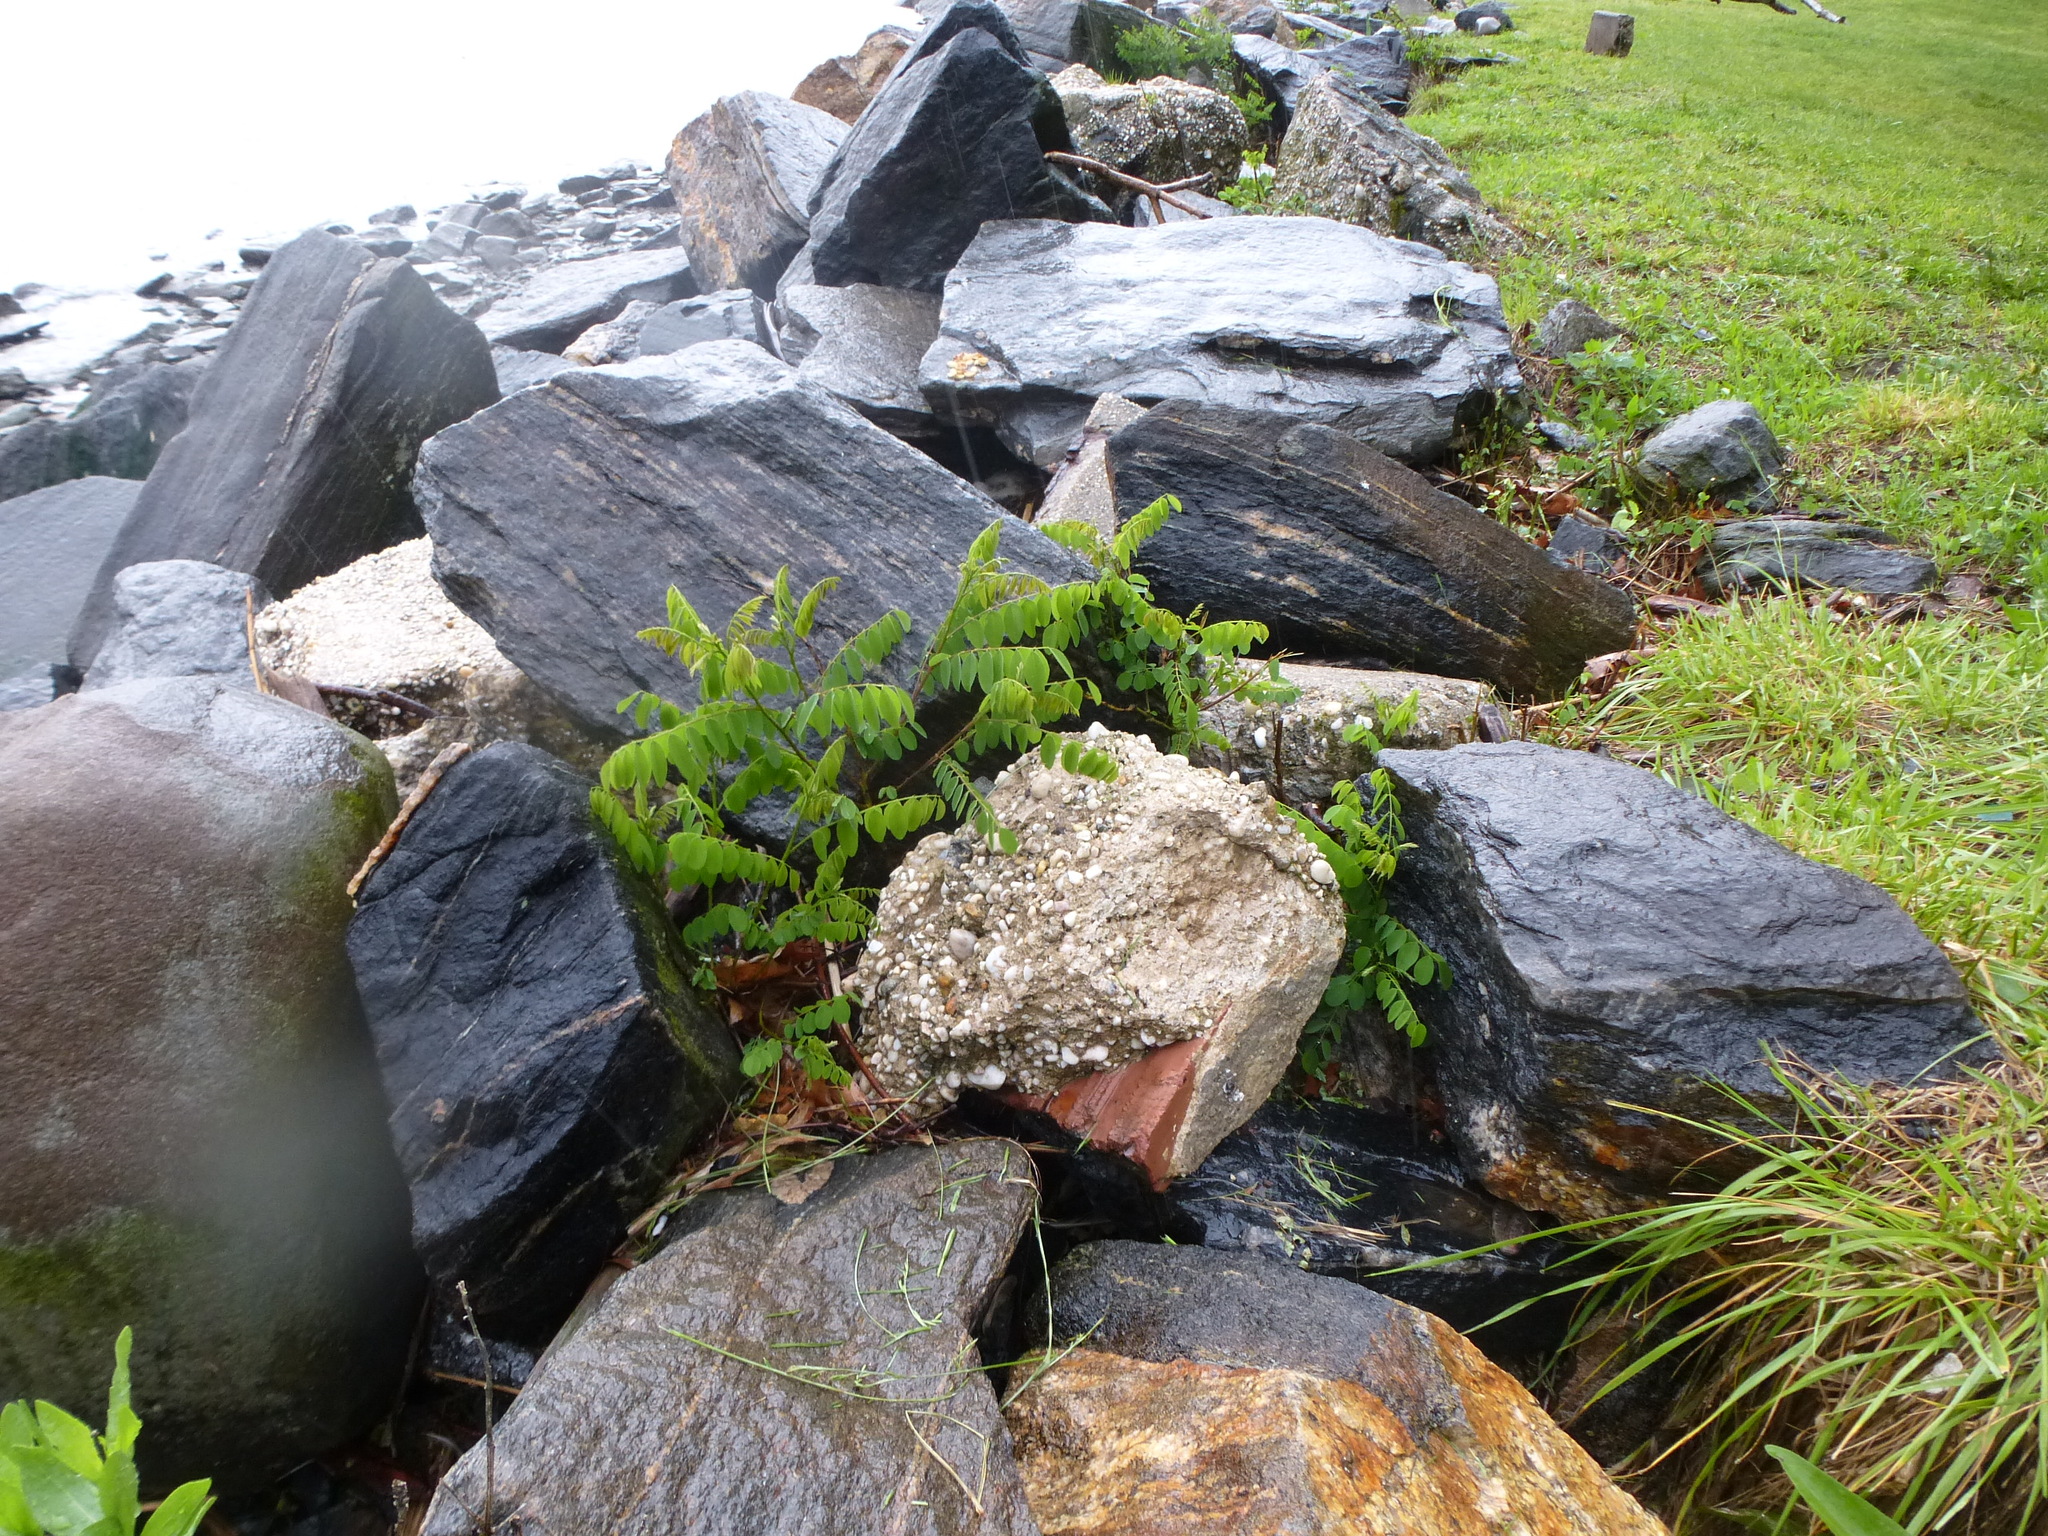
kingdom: Plantae
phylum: Tracheophyta
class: Magnoliopsida
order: Fabales
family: Fabaceae
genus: Robinia
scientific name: Robinia pseudoacacia
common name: Black locust
